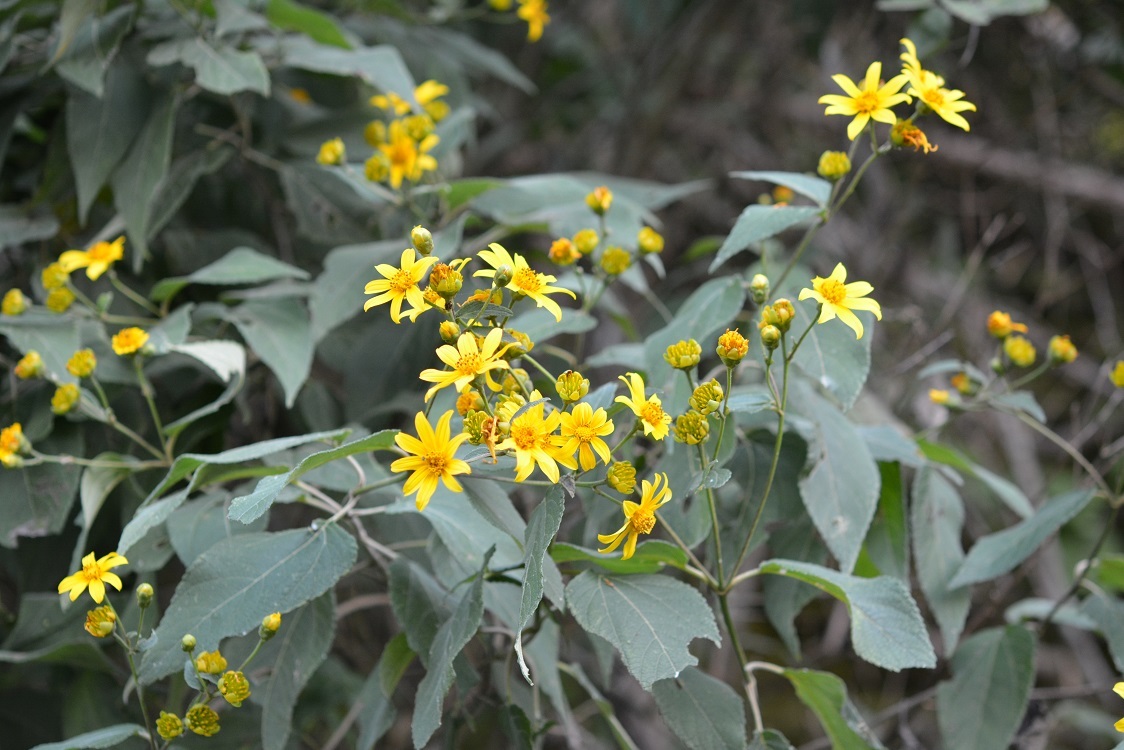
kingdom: Plantae
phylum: Tracheophyta
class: Magnoliopsida
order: Asterales
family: Asteraceae
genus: Perymenium
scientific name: Perymenium grande
